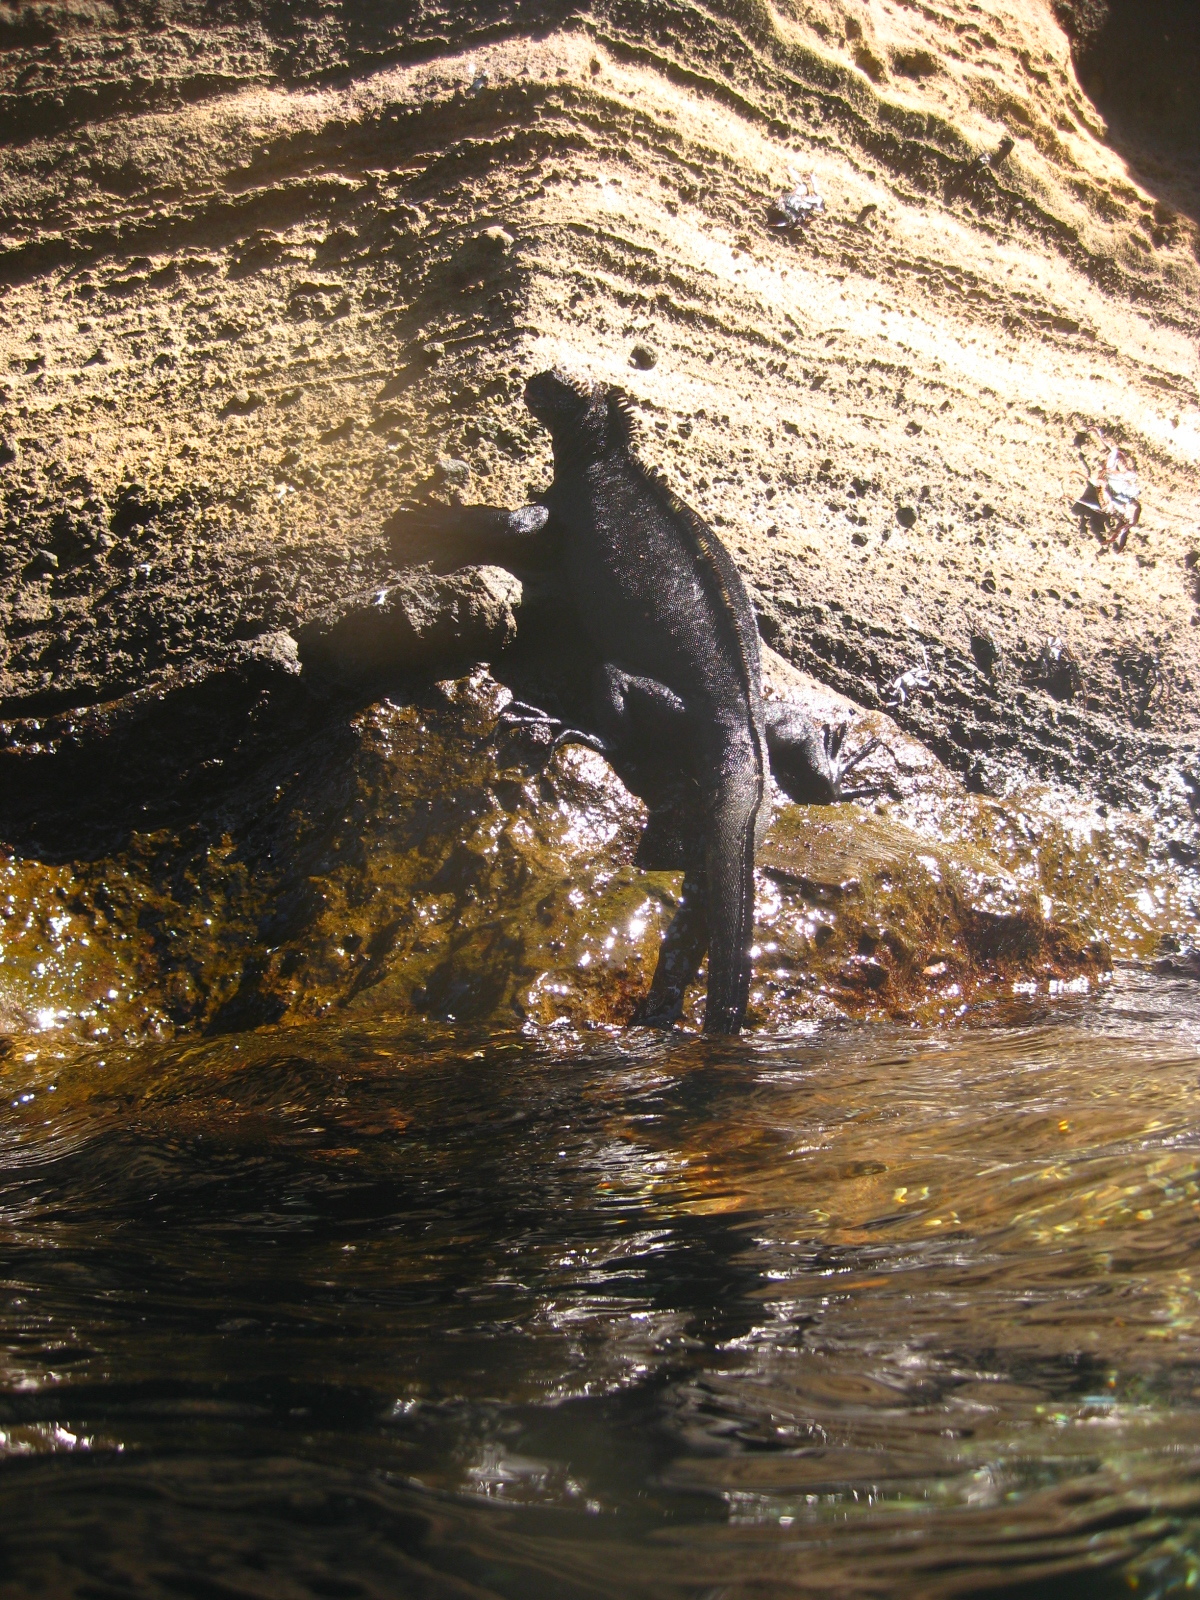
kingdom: Animalia
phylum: Chordata
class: Squamata
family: Iguanidae
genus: Amblyrhynchus
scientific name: Amblyrhynchus cristatus
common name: Marine iguana
